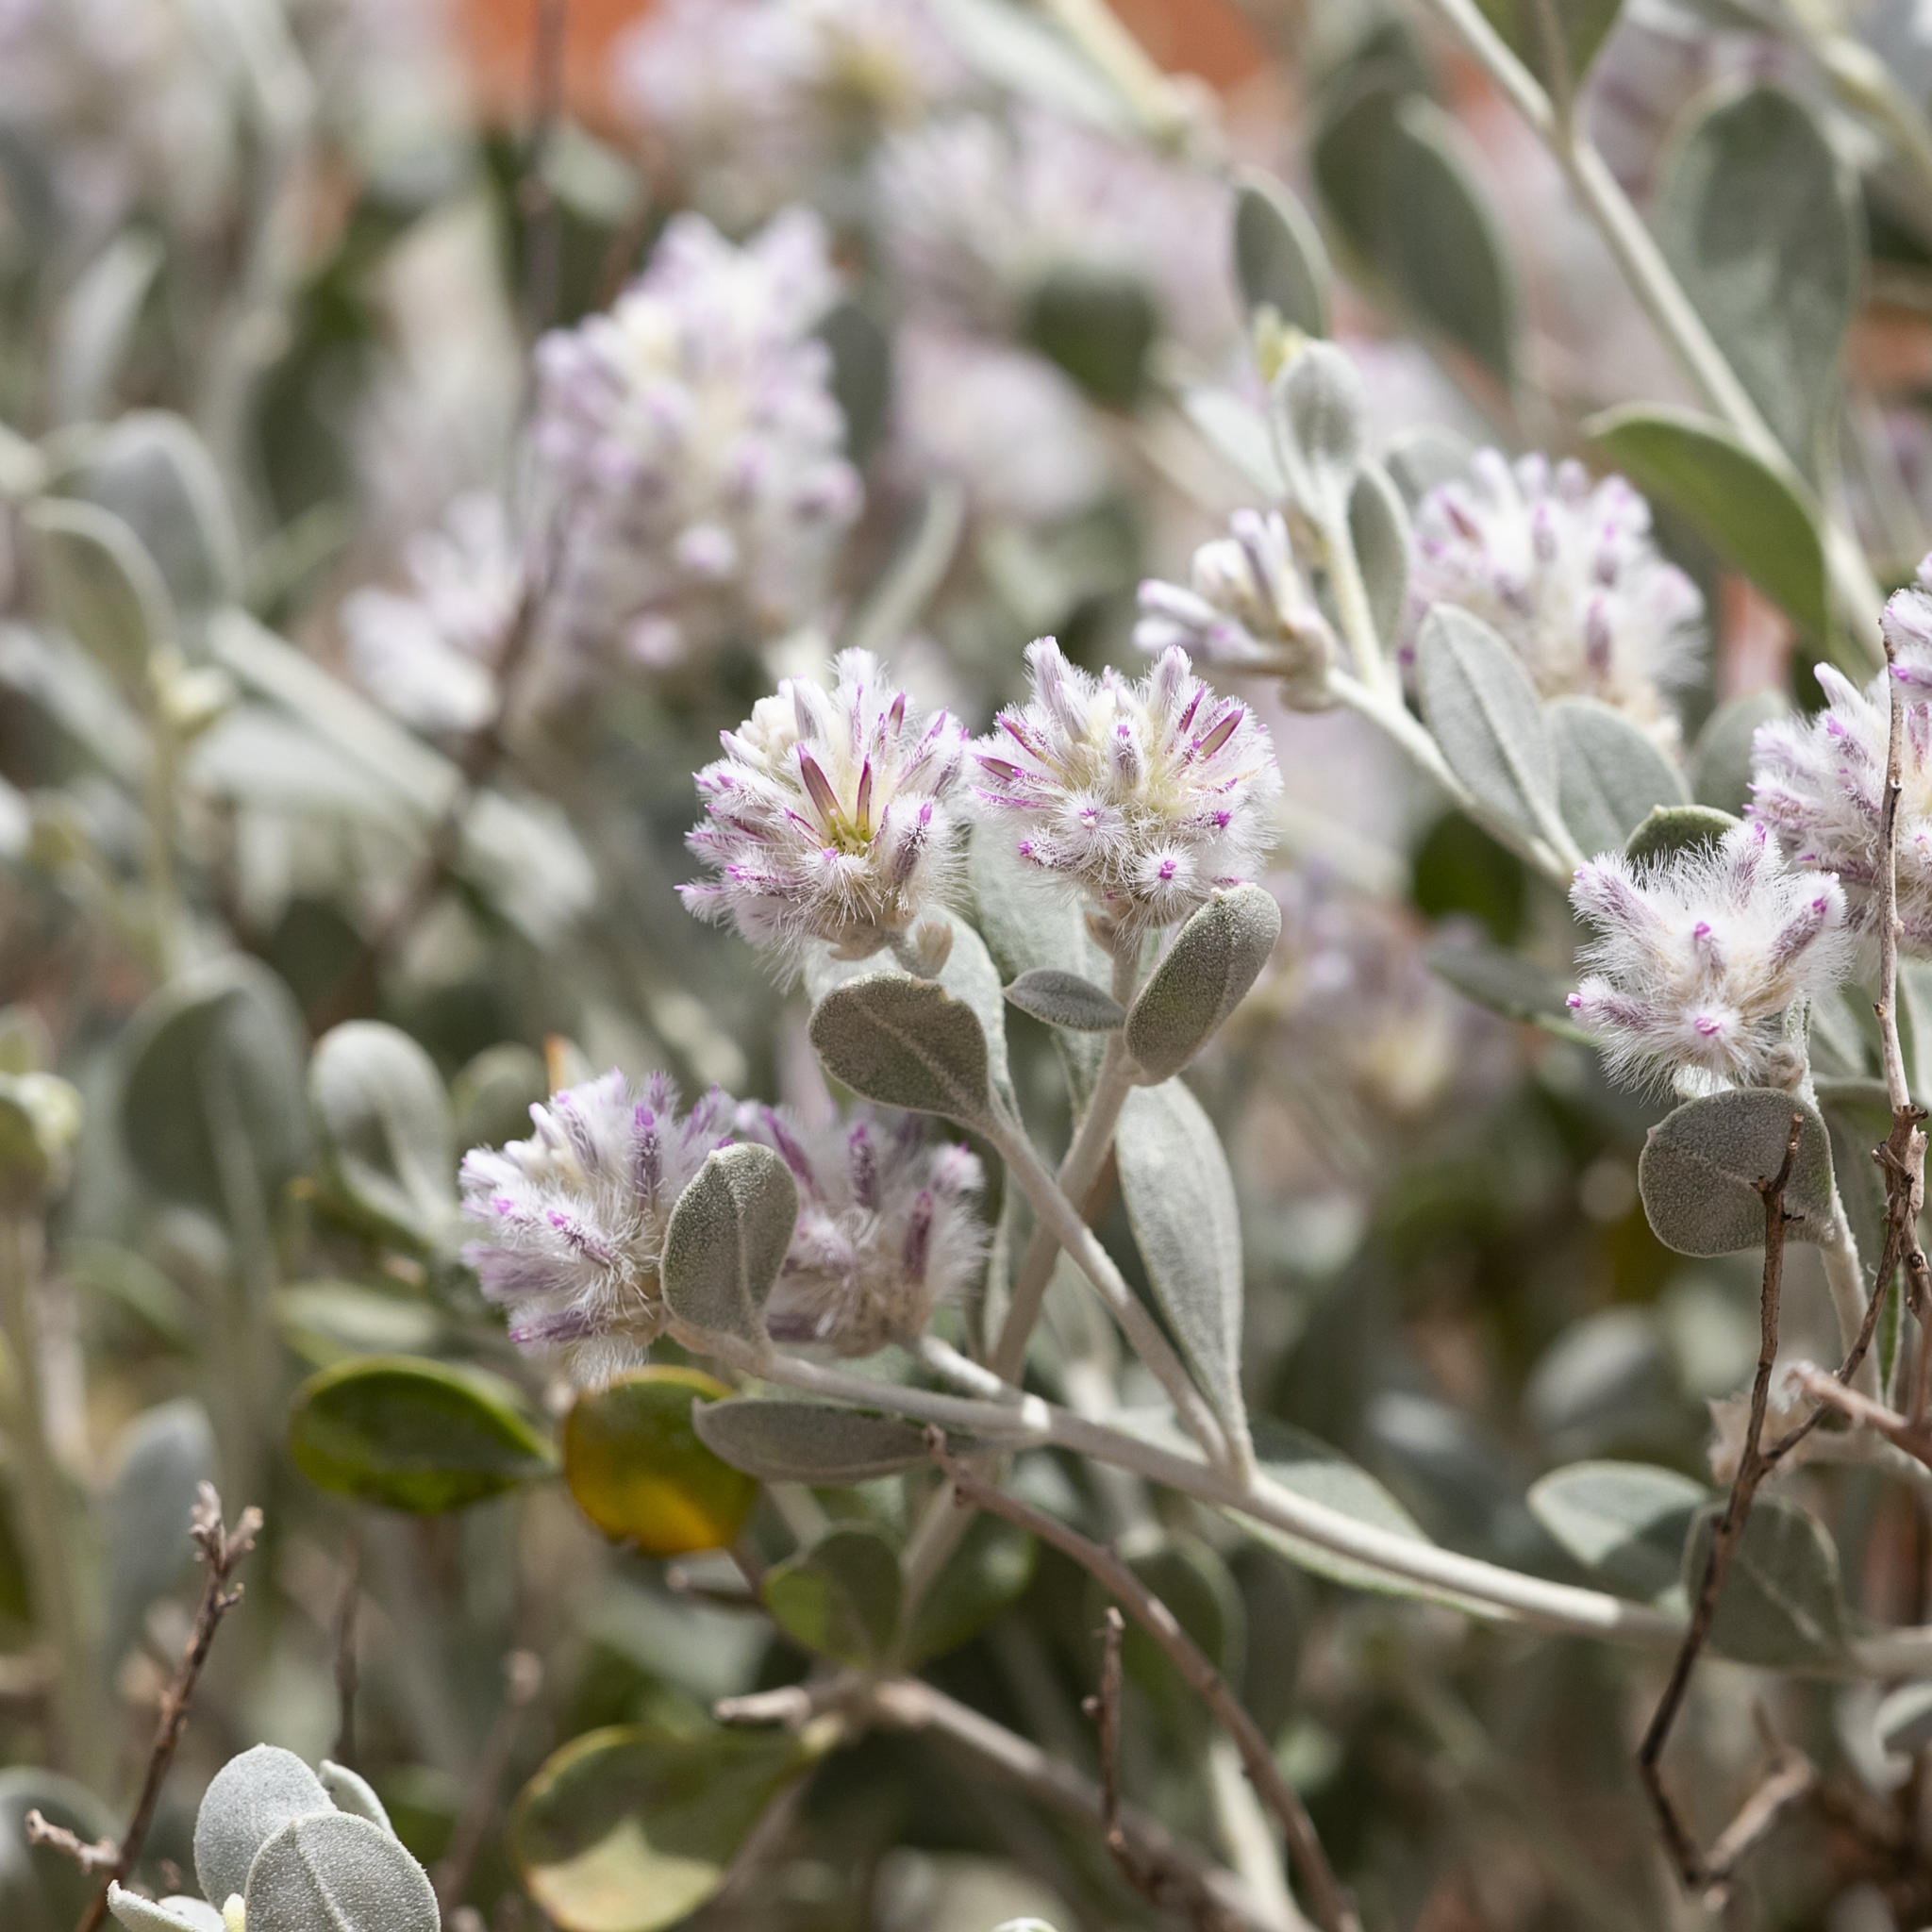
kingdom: Plantae
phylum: Tracheophyta
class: Magnoliopsida
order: Caryophyllales
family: Amaranthaceae
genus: Ptilotus
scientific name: Ptilotus obovatus
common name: Cottonbush
